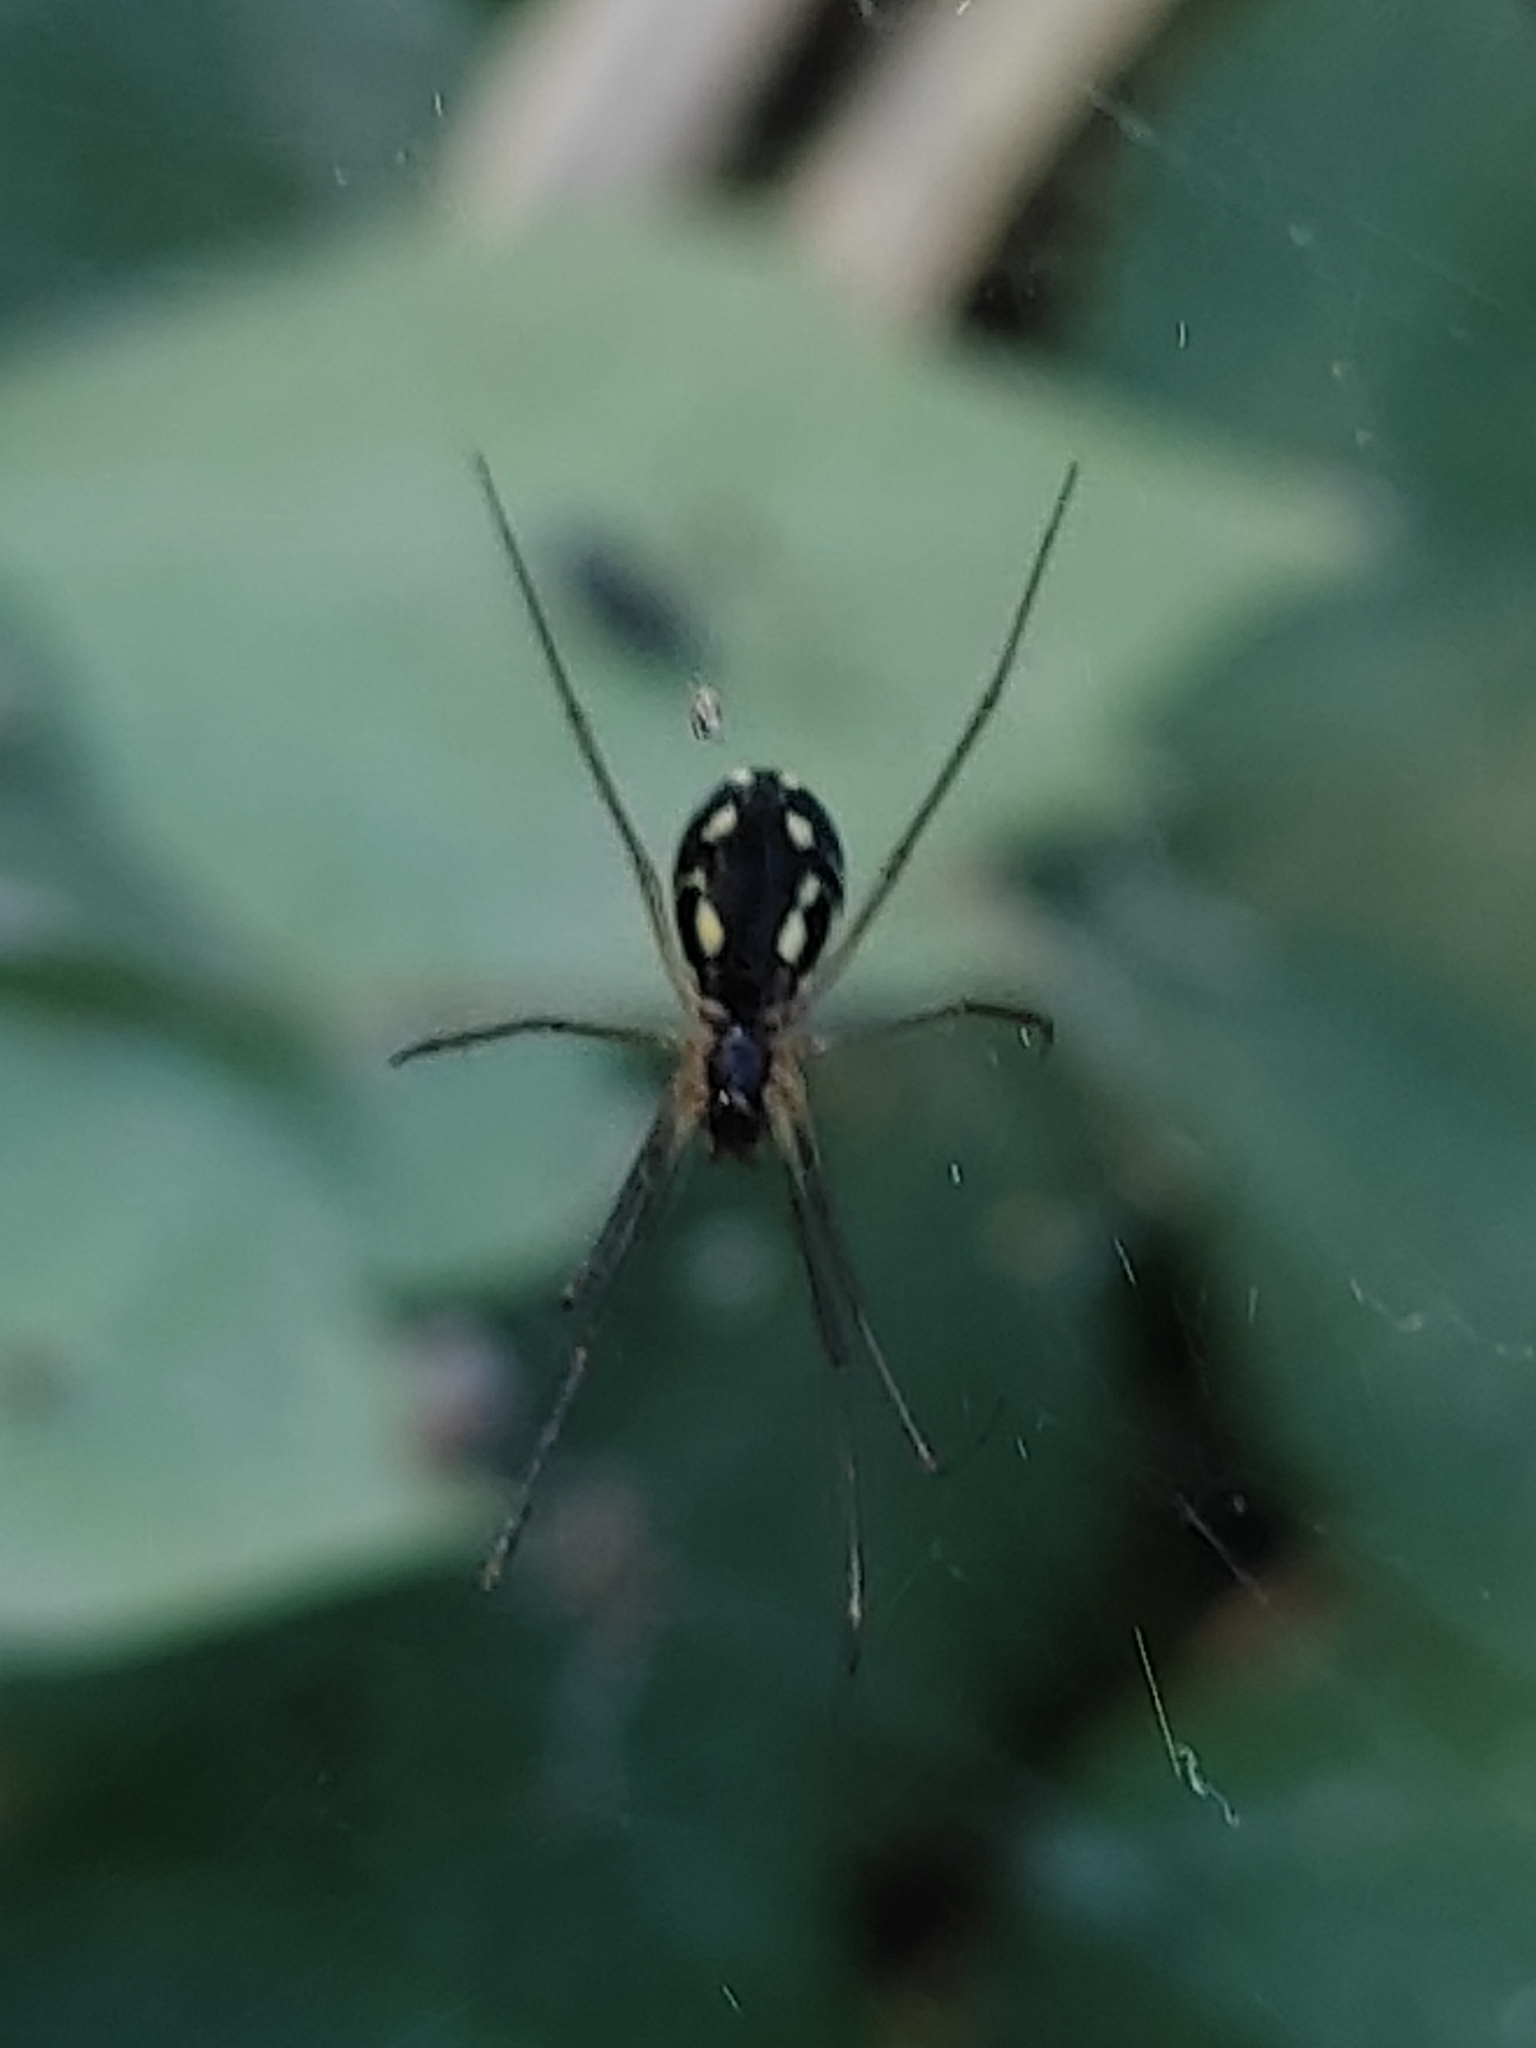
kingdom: Animalia
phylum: Arthropoda
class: Arachnida
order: Araneae
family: Linyphiidae
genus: Neriene
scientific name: Neriene radiata
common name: Filmy dome spider
